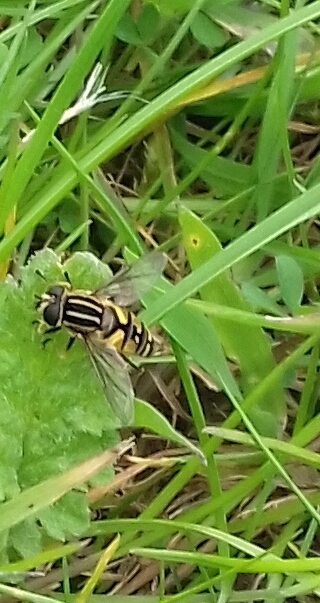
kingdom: Animalia
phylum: Arthropoda
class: Insecta
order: Diptera
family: Syrphidae
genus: Helophilus
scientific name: Helophilus pendulus
